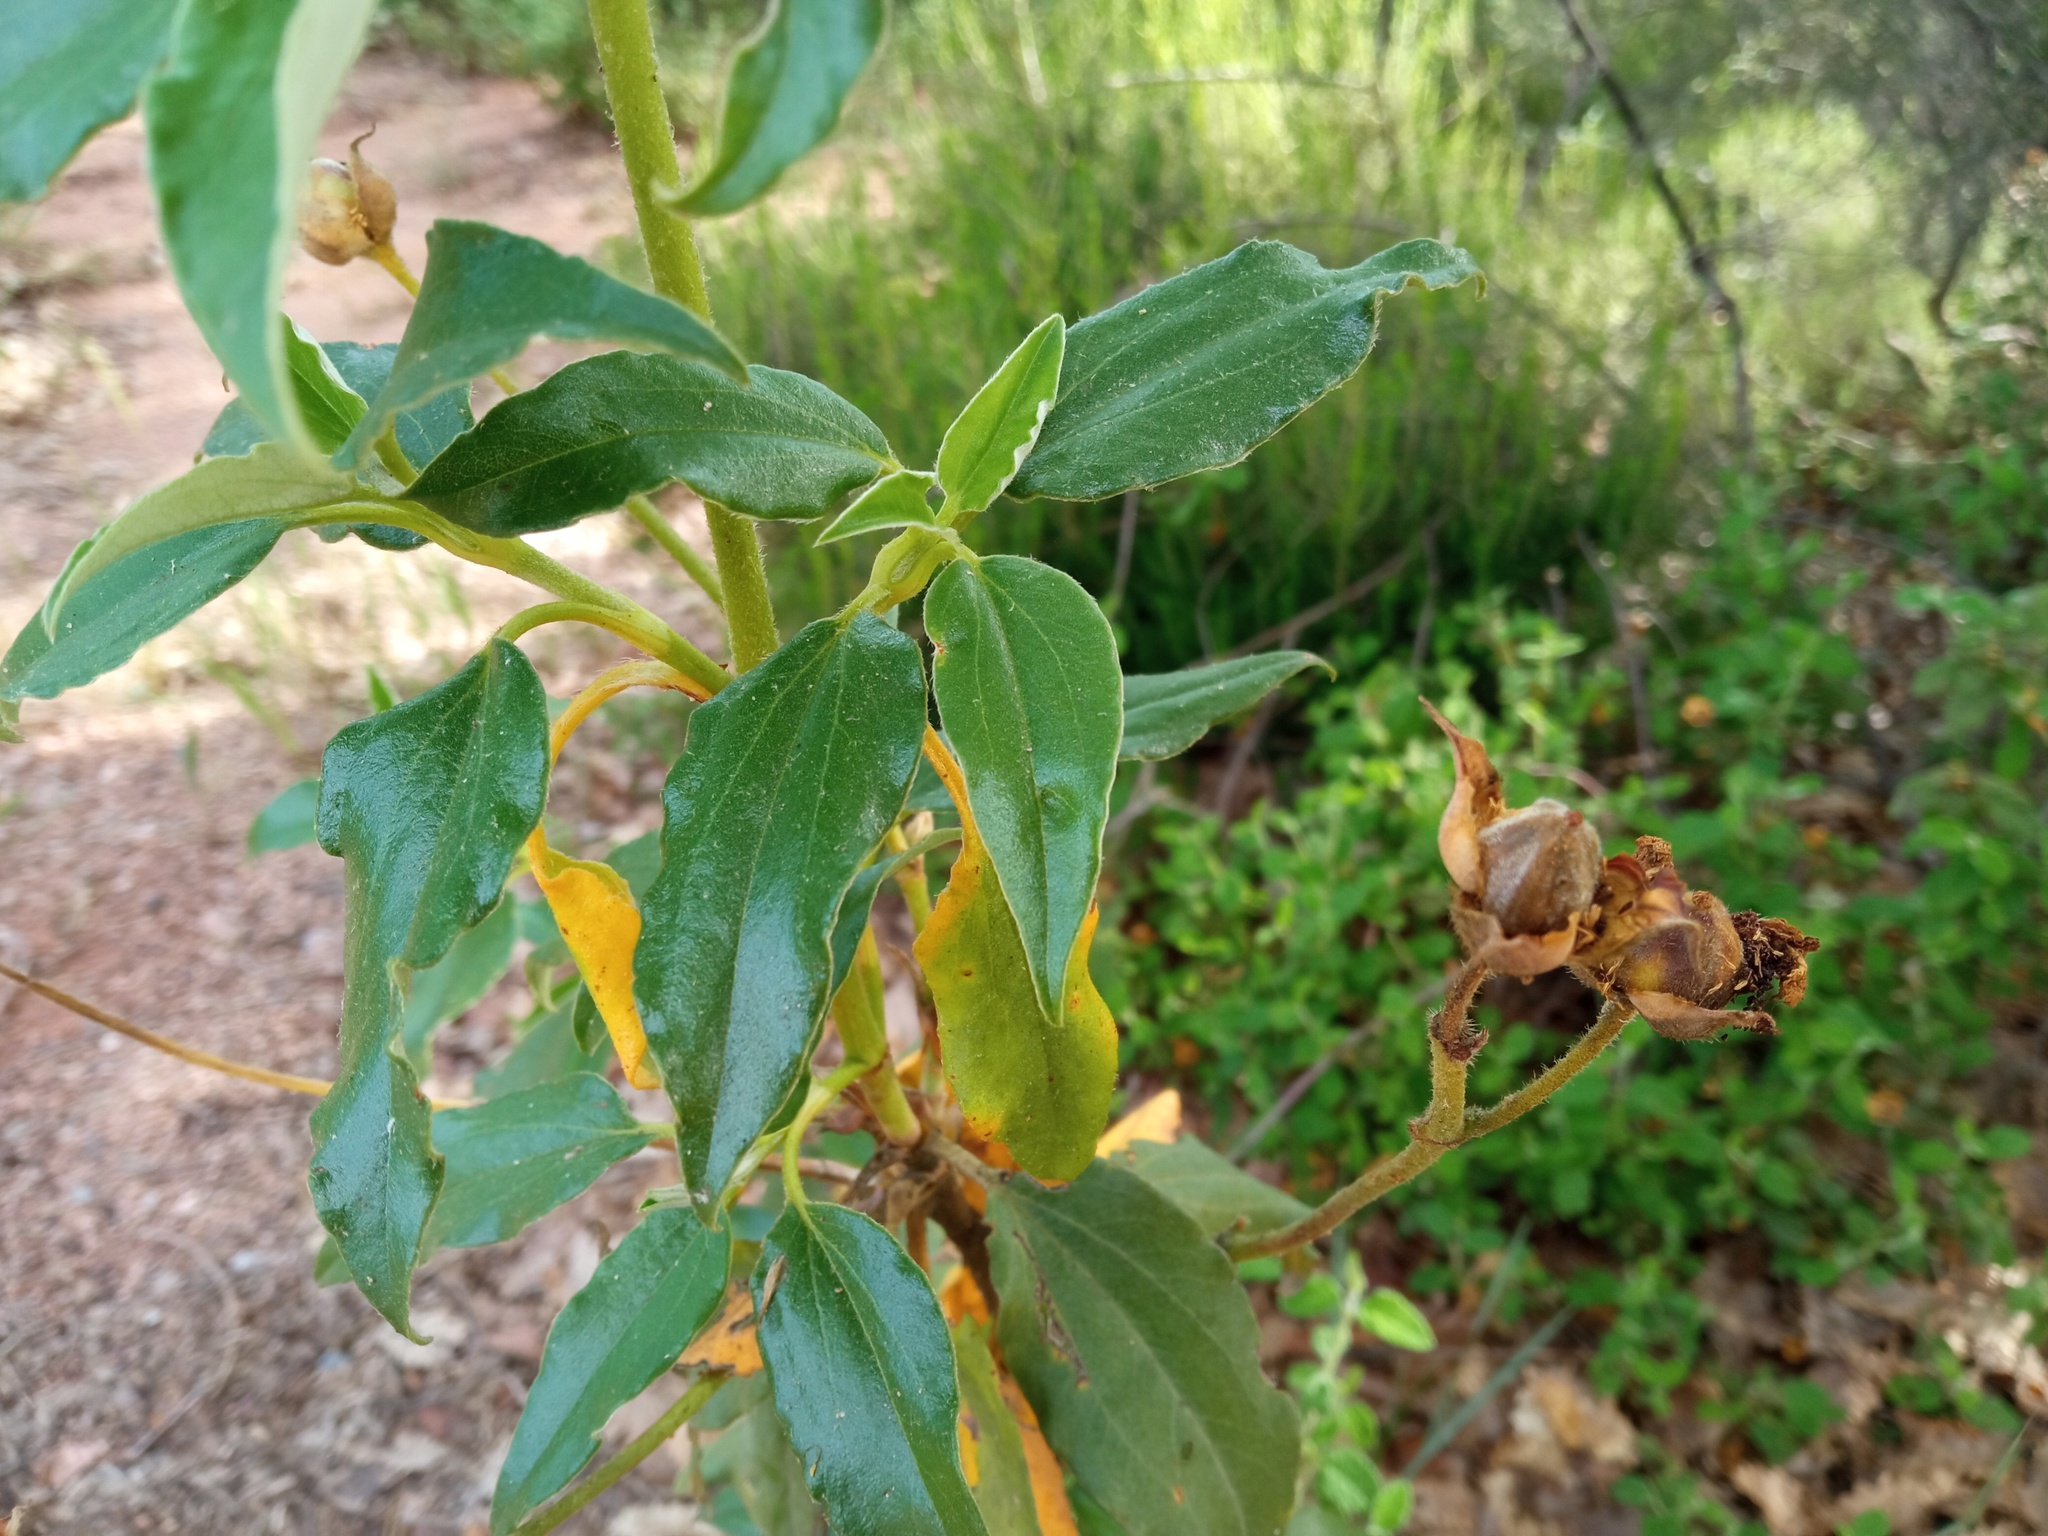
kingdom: Plantae
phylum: Tracheophyta
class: Magnoliopsida
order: Malvales
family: Cistaceae
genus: Cistus
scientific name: Cistus laurifolius
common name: Laurel-leaved cistus
